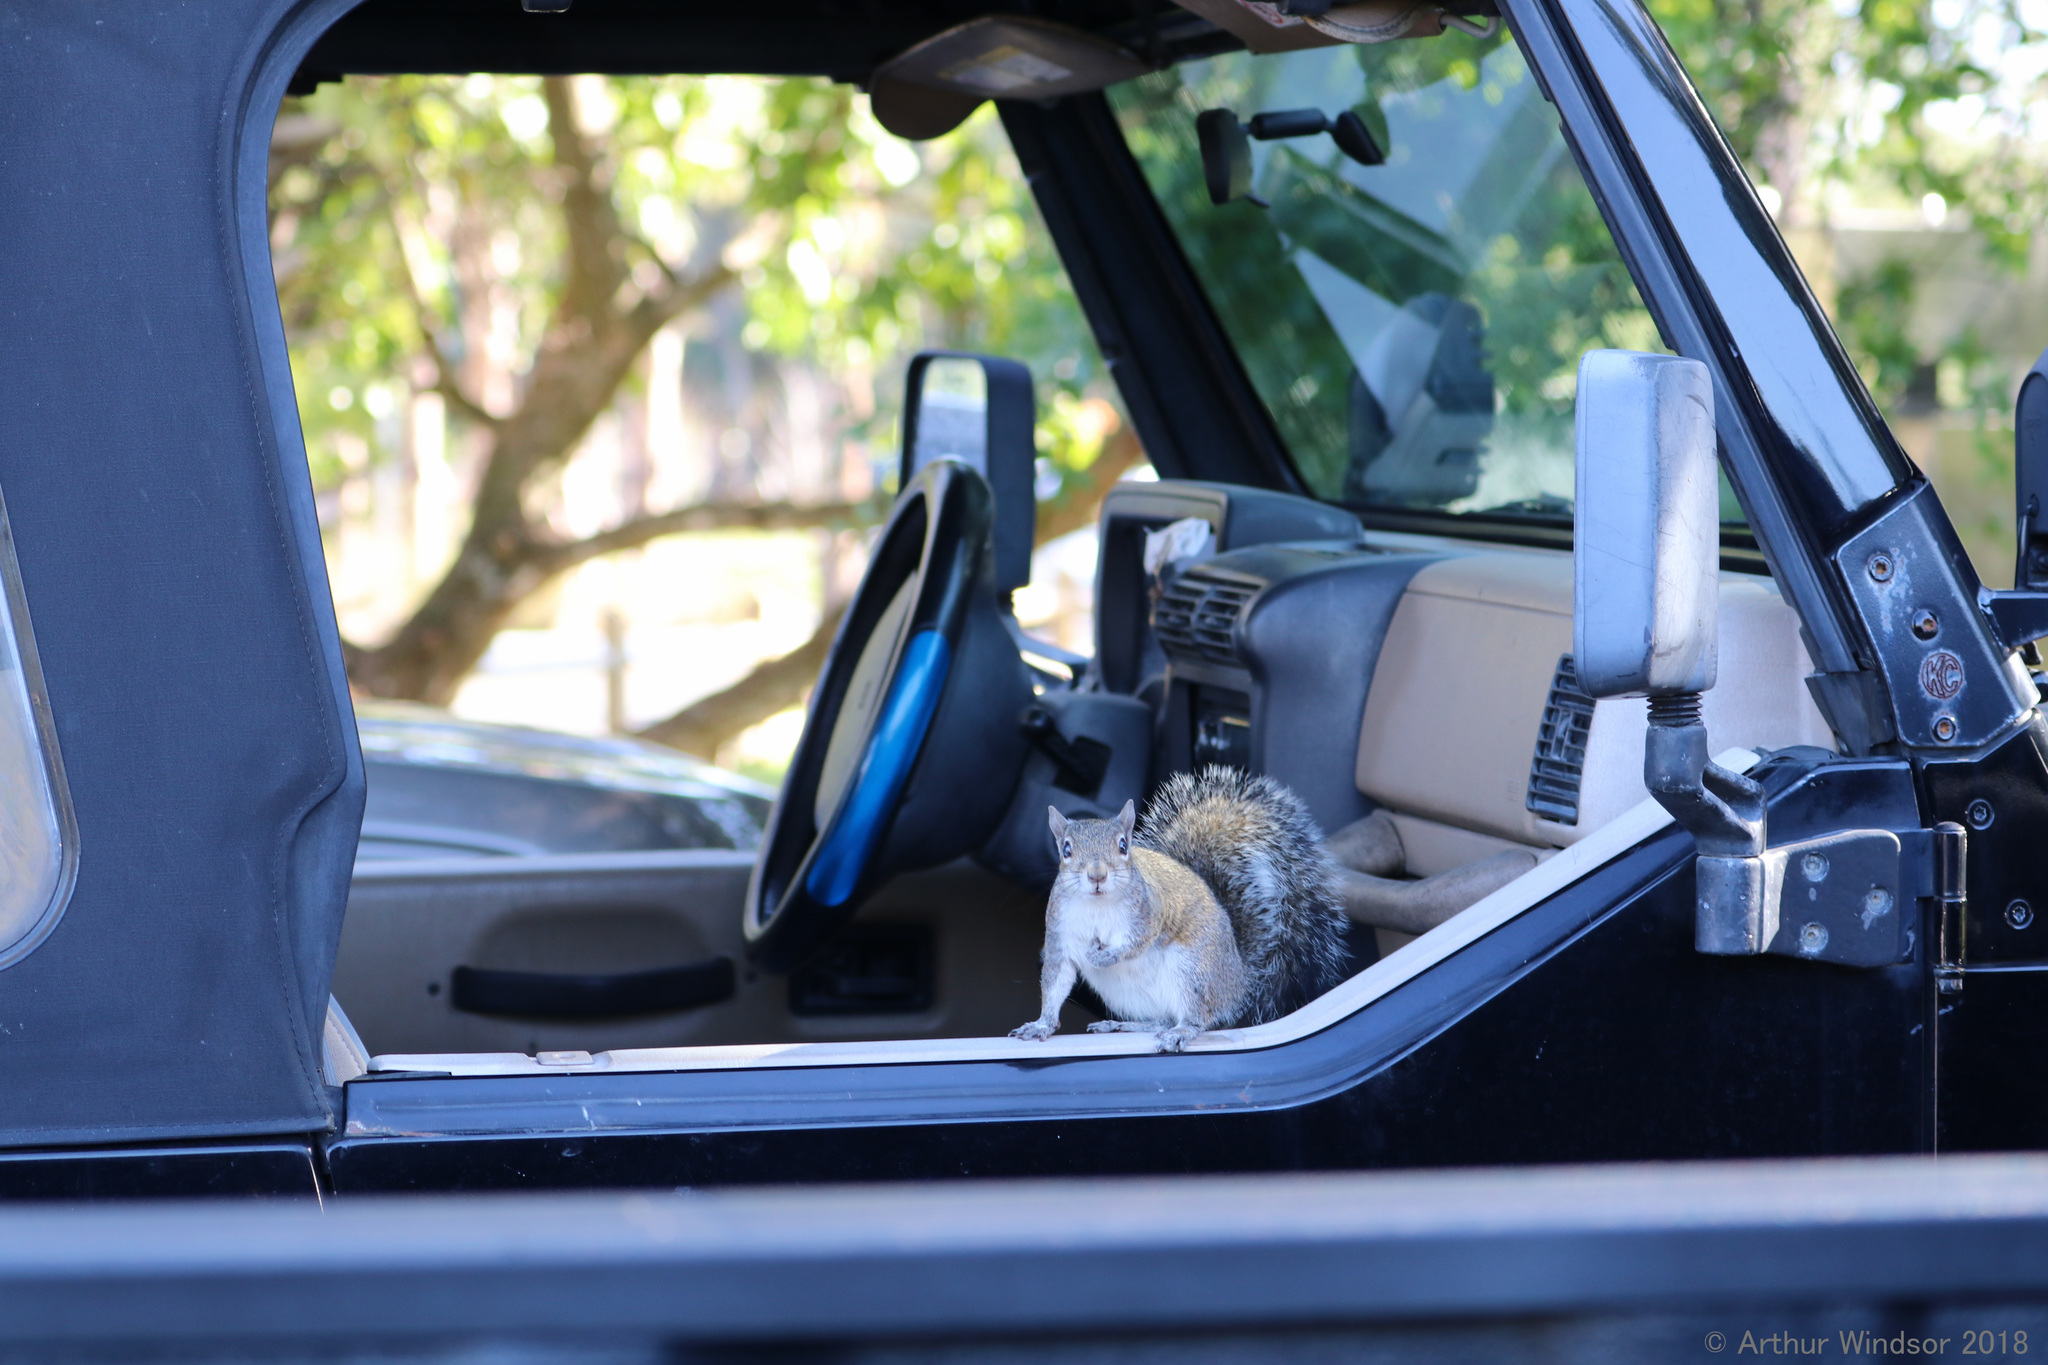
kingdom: Animalia
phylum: Chordata
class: Mammalia
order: Rodentia
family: Sciuridae
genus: Sciurus
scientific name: Sciurus carolinensis
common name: Eastern gray squirrel
